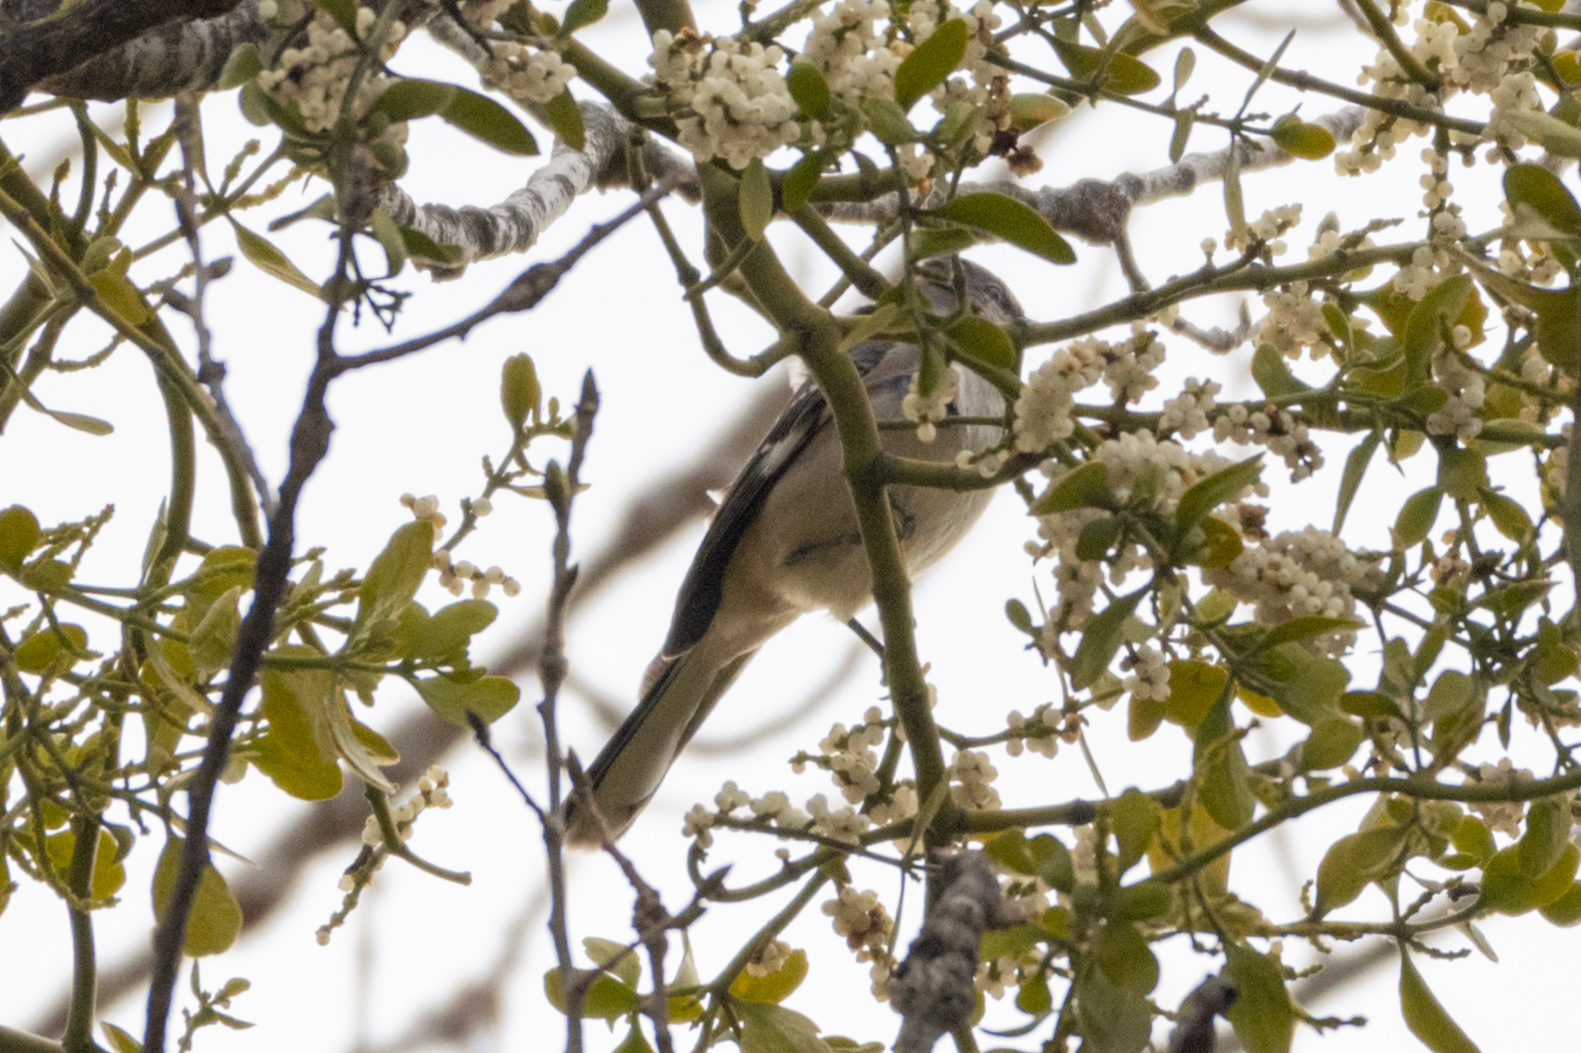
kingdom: Animalia
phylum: Chordata
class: Aves
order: Passeriformes
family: Mimidae
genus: Mimus
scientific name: Mimus polyglottos
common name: Northern mockingbird
